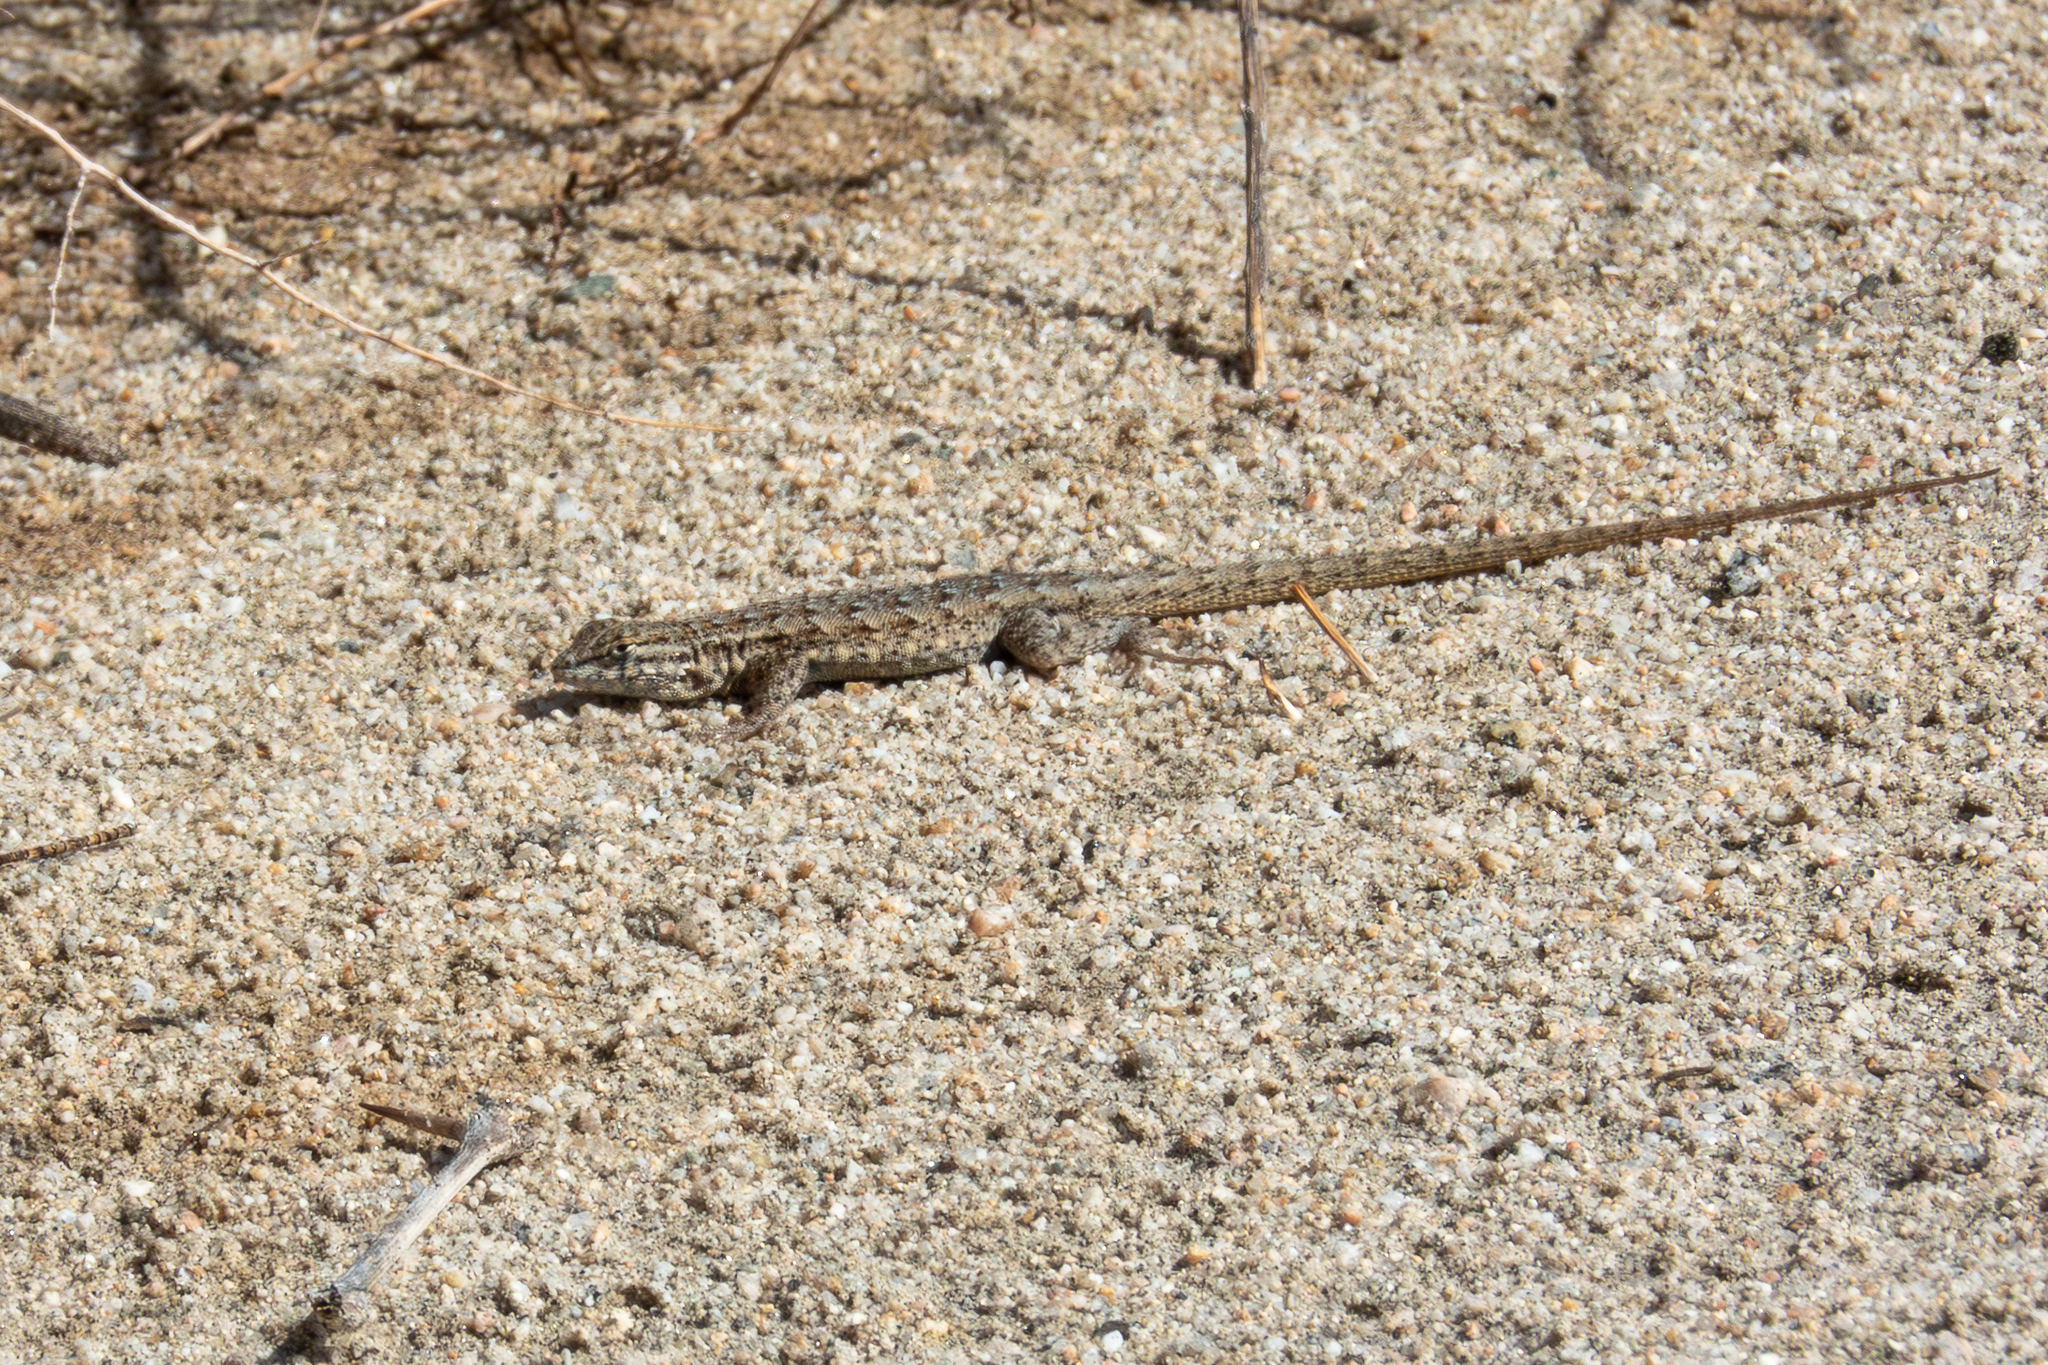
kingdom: Animalia
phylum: Chordata
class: Squamata
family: Phrynosomatidae
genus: Uta
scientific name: Uta stansburiana
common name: Side-blotched lizard
